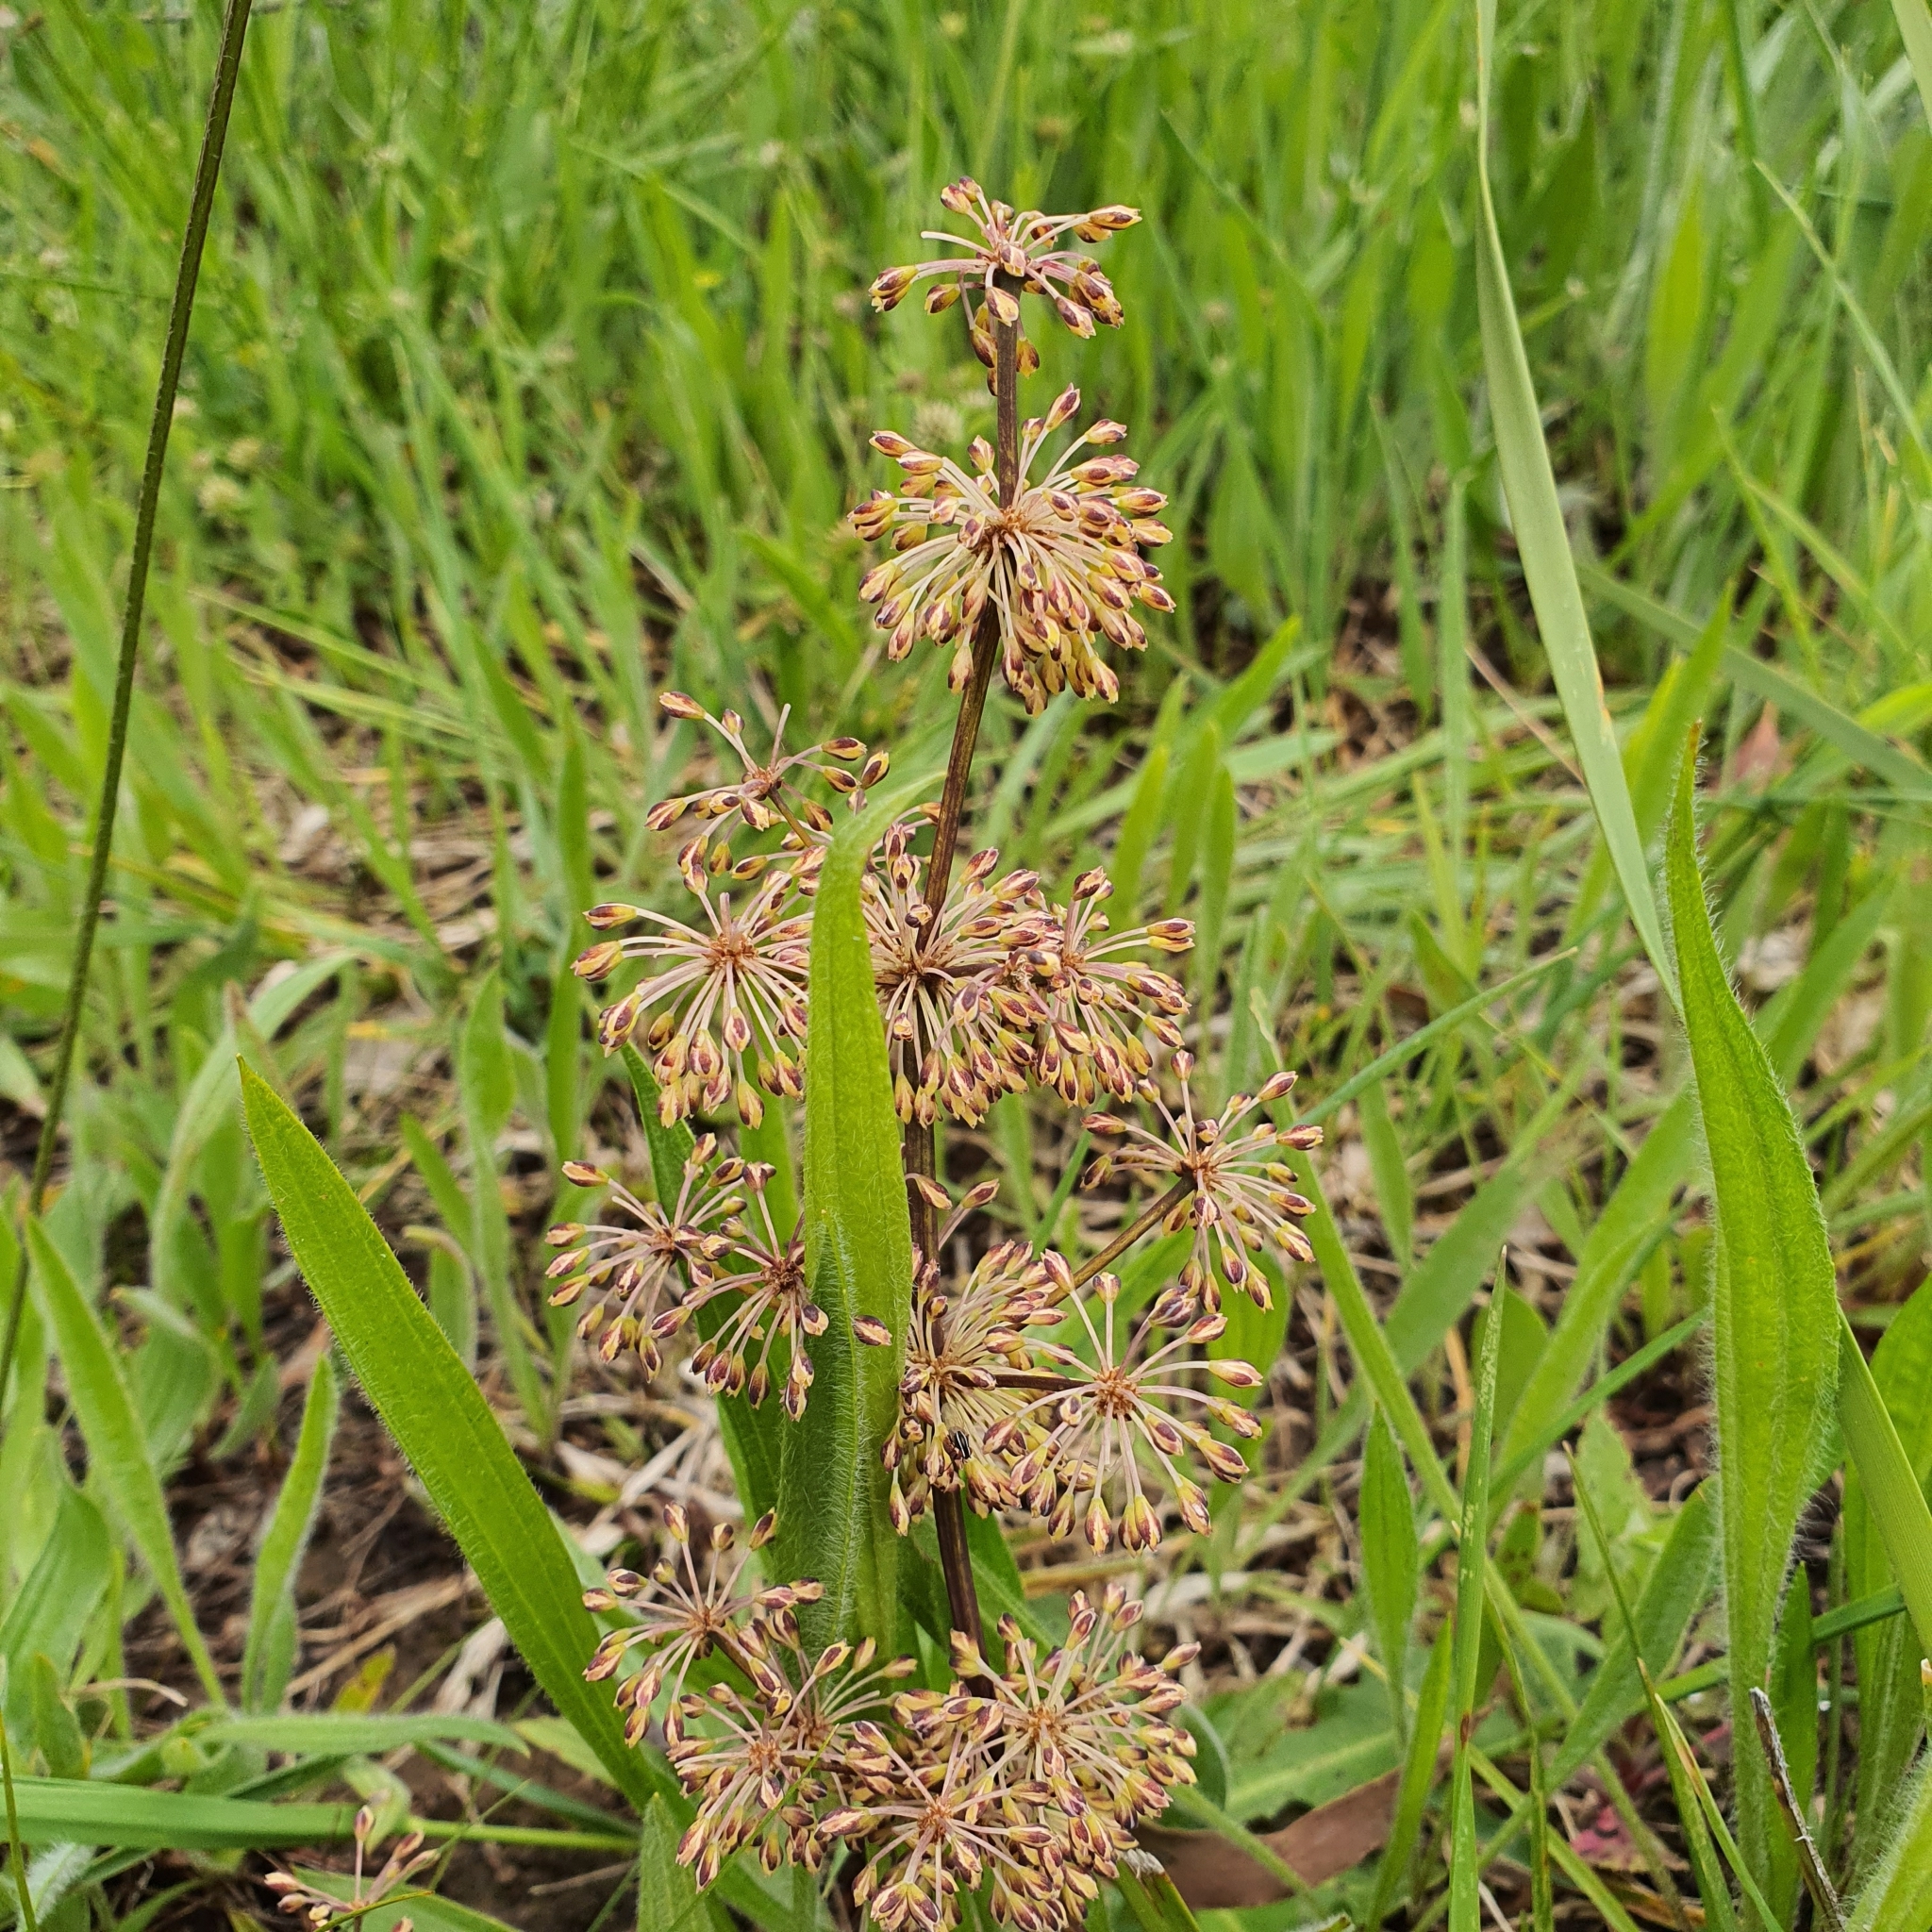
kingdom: Plantae
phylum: Tracheophyta
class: Liliopsida
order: Asparagales
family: Asparagaceae
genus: Lomandra
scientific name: Lomandra multiflora
